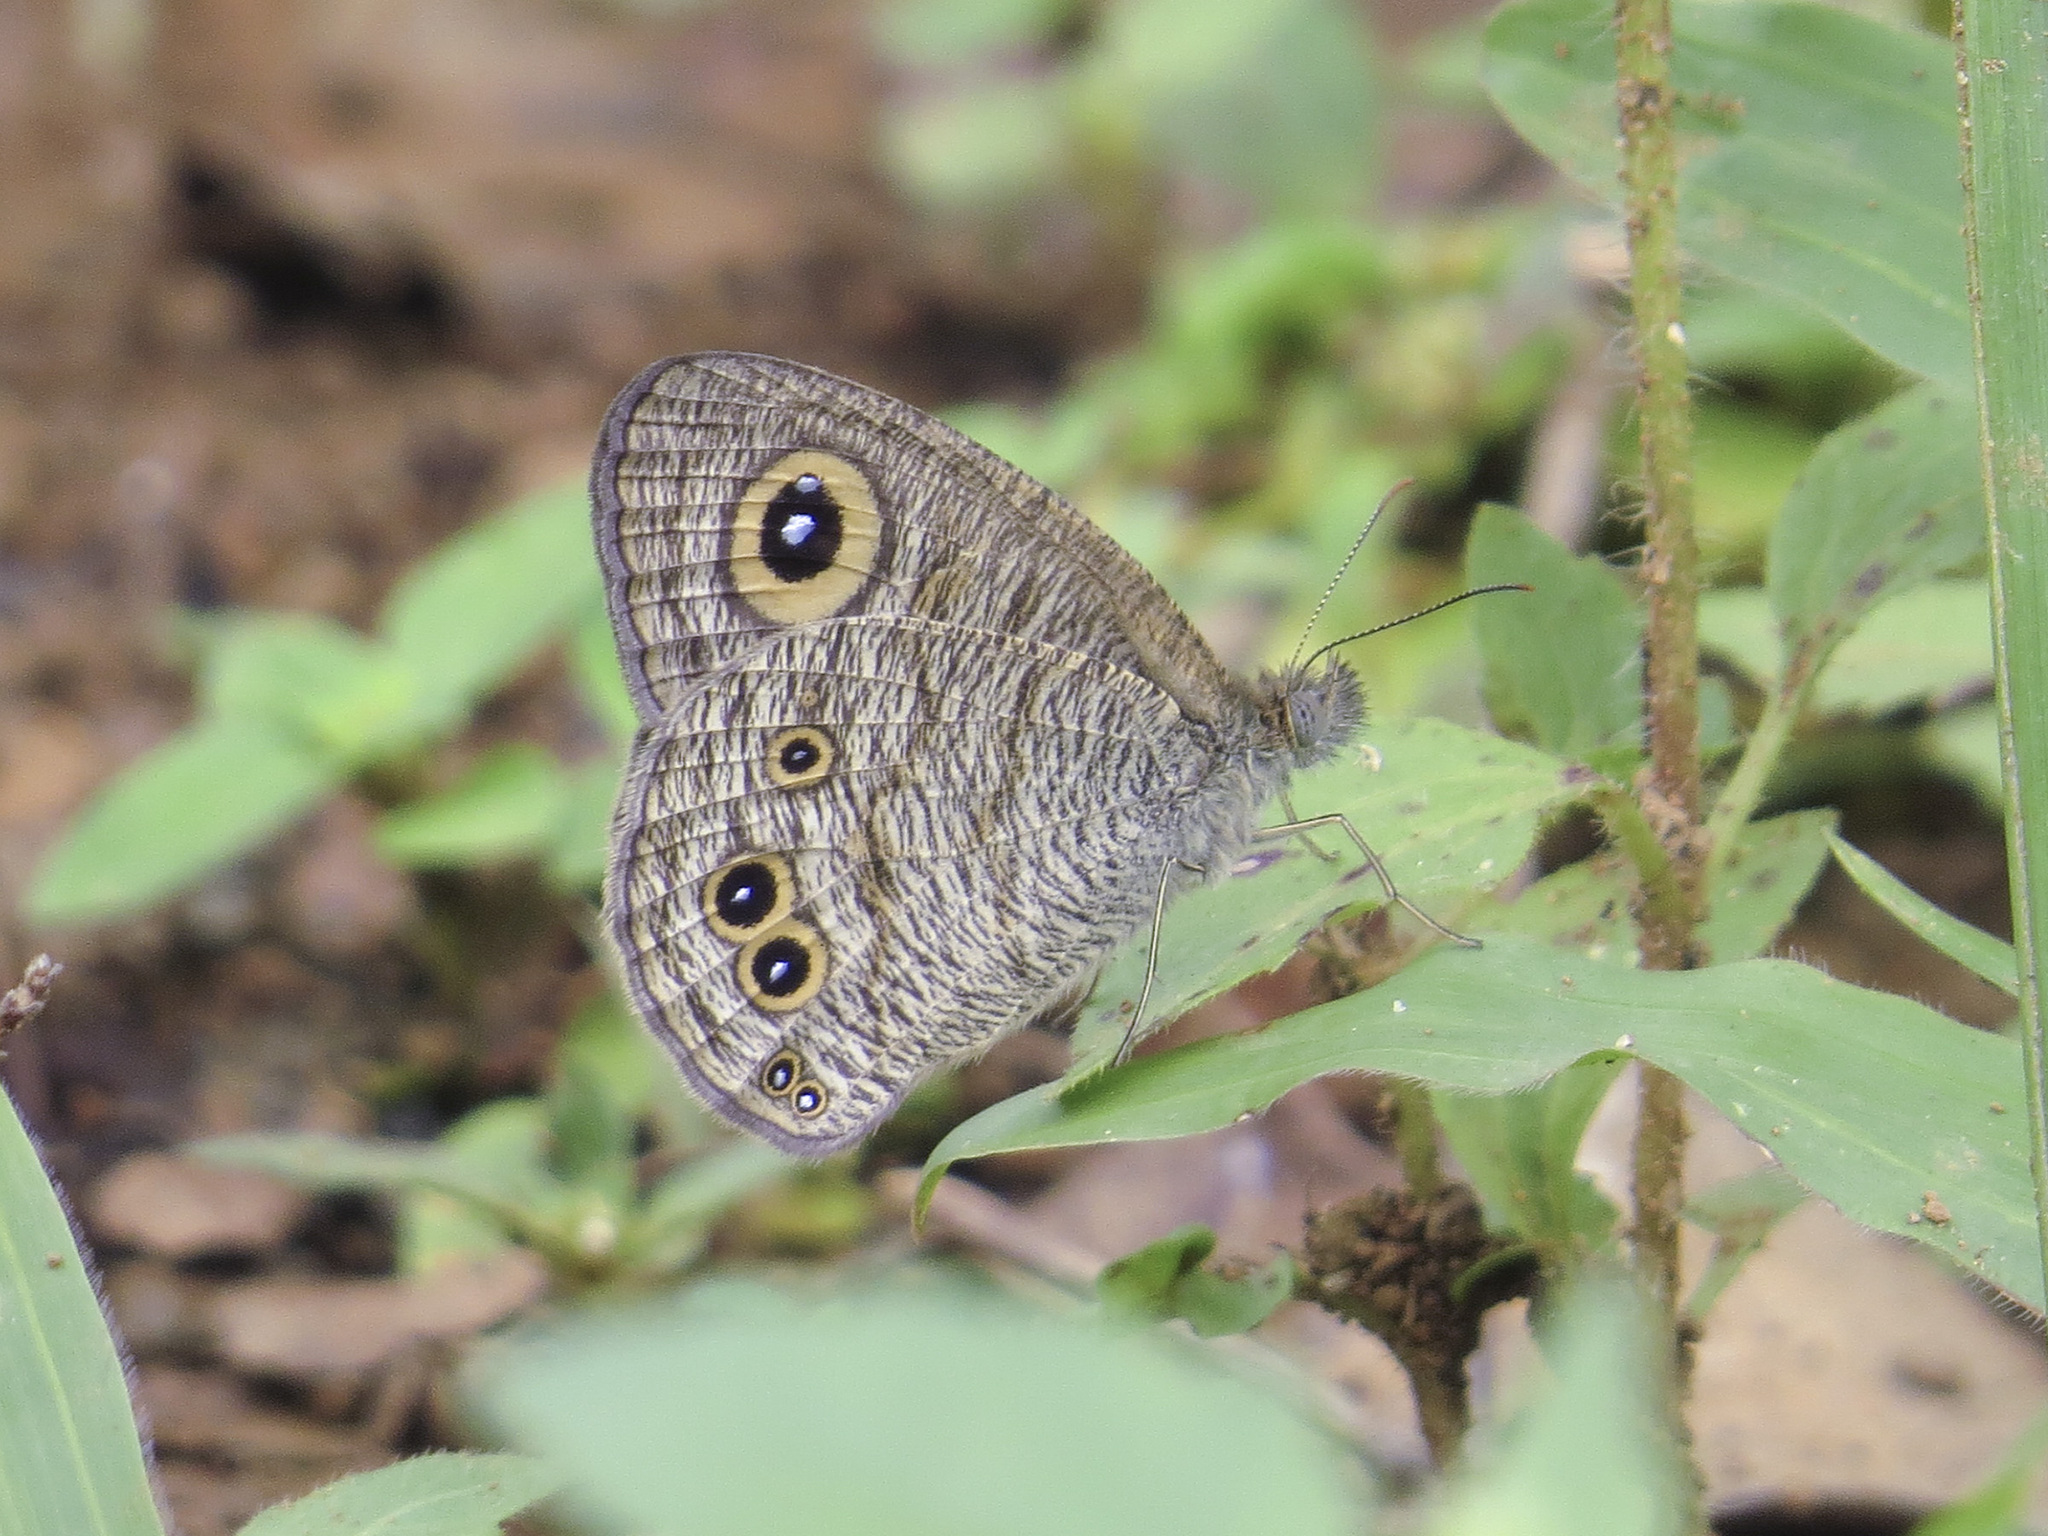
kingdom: Animalia
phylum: Arthropoda
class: Insecta
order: Lepidoptera
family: Nymphalidae
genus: Ypthima
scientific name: Ypthima baldus
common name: Common five-ring
